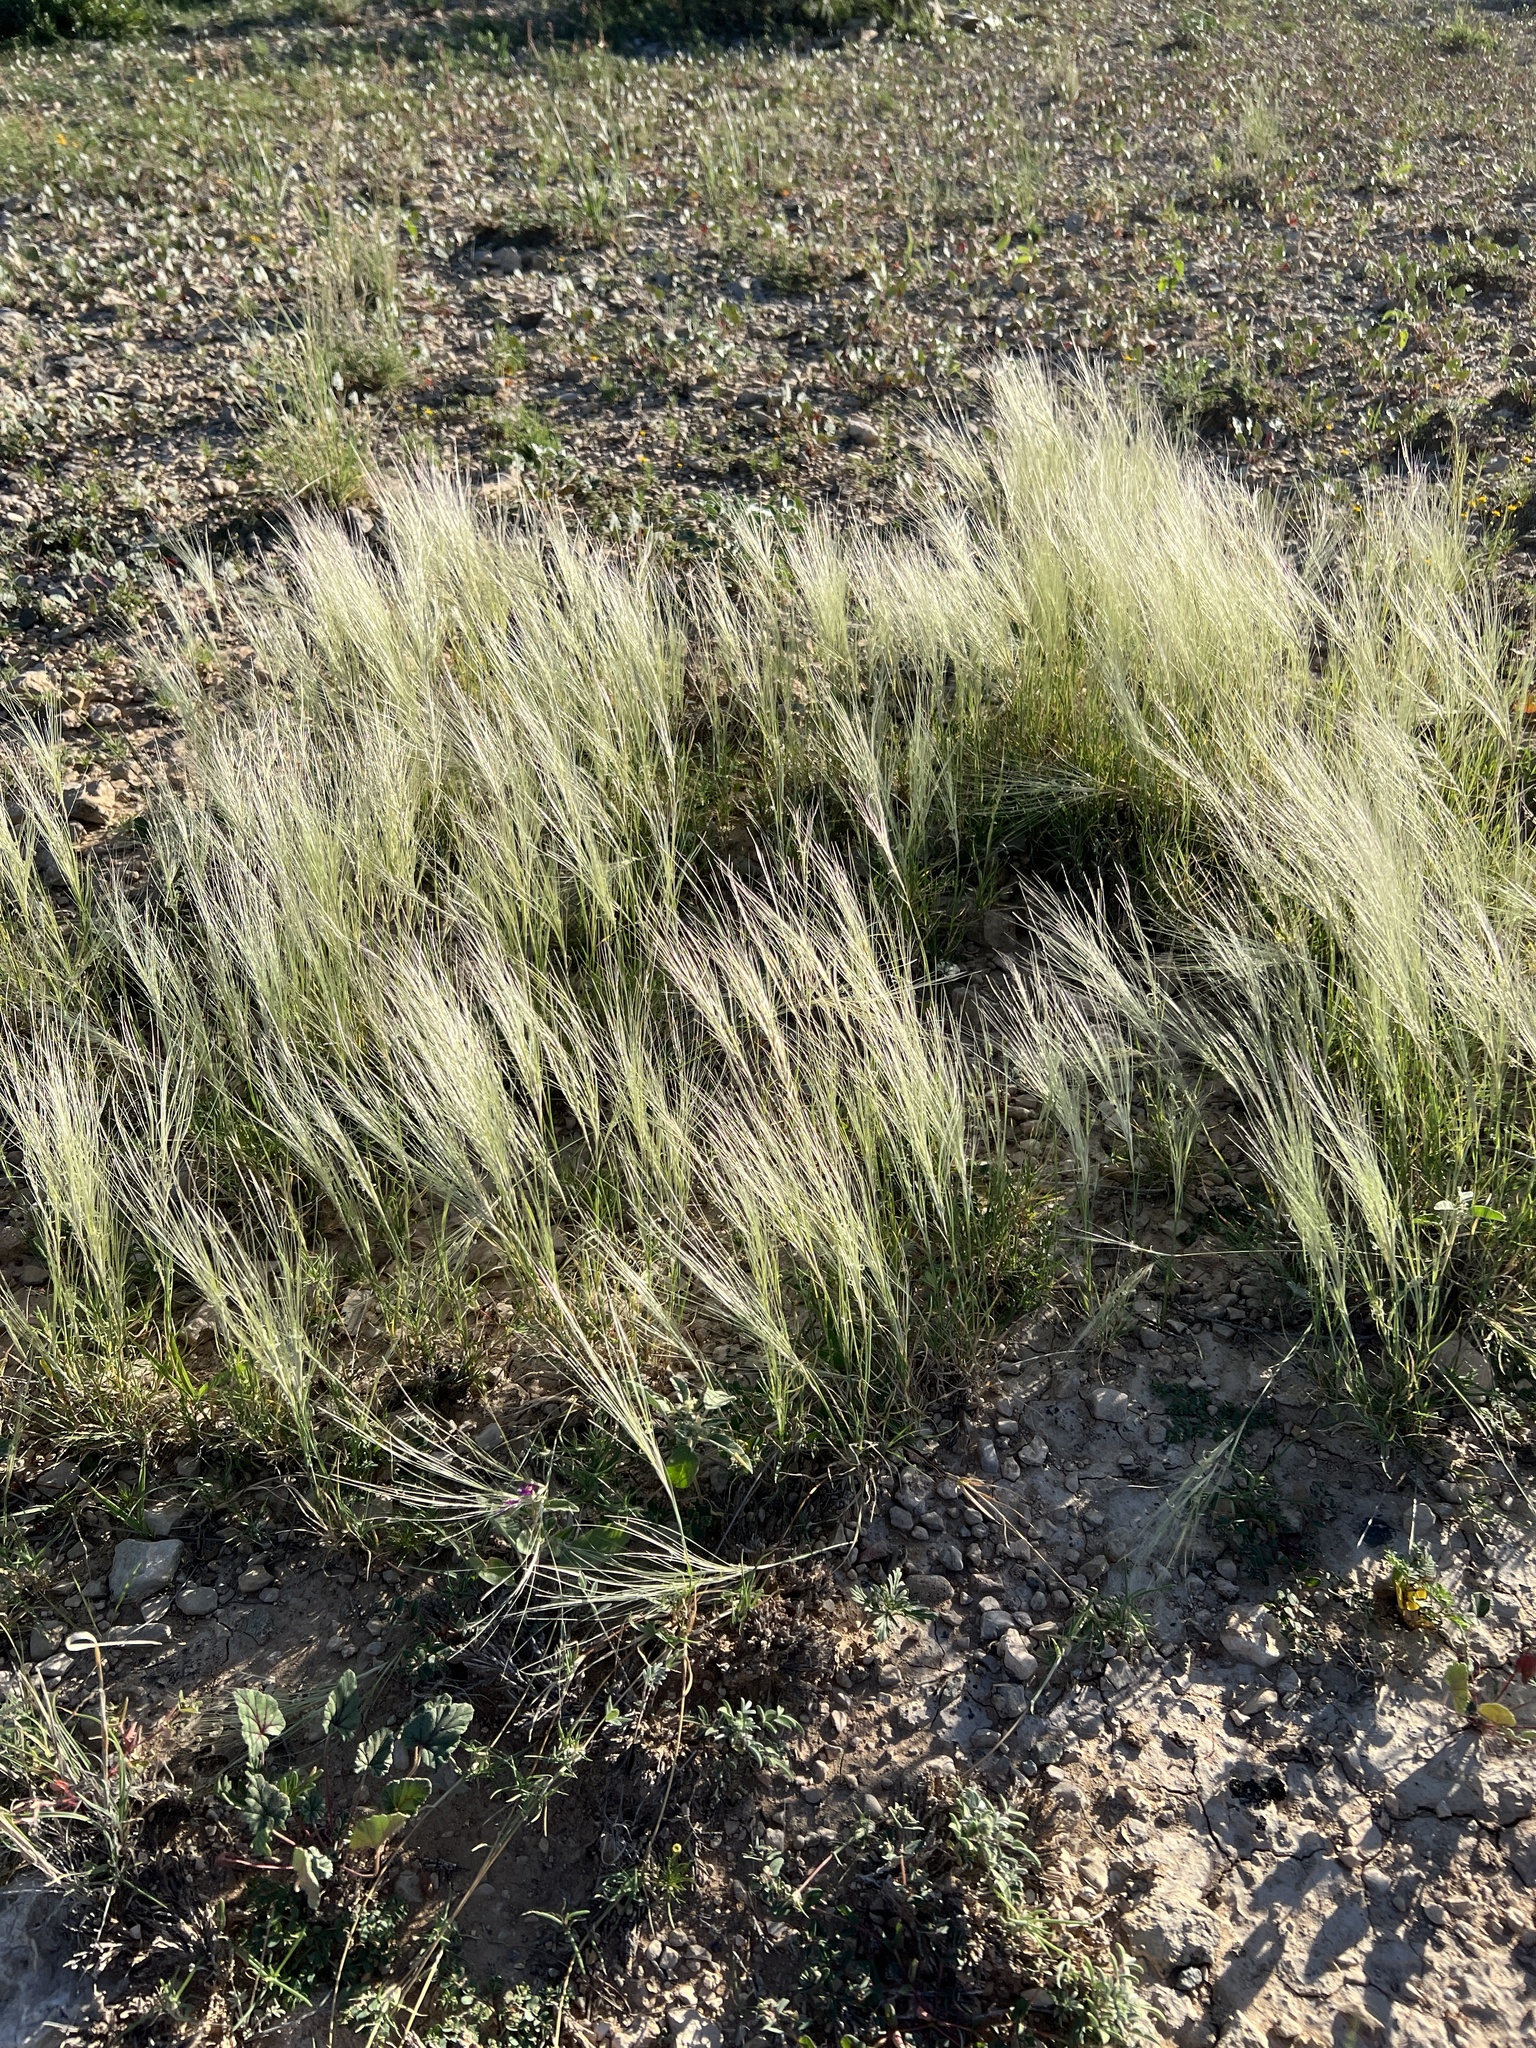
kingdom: Plantae
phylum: Tracheophyta
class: Liliopsida
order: Poales
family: Poaceae
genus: Scleropogon
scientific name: Scleropogon brevifolius
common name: Burro grass
